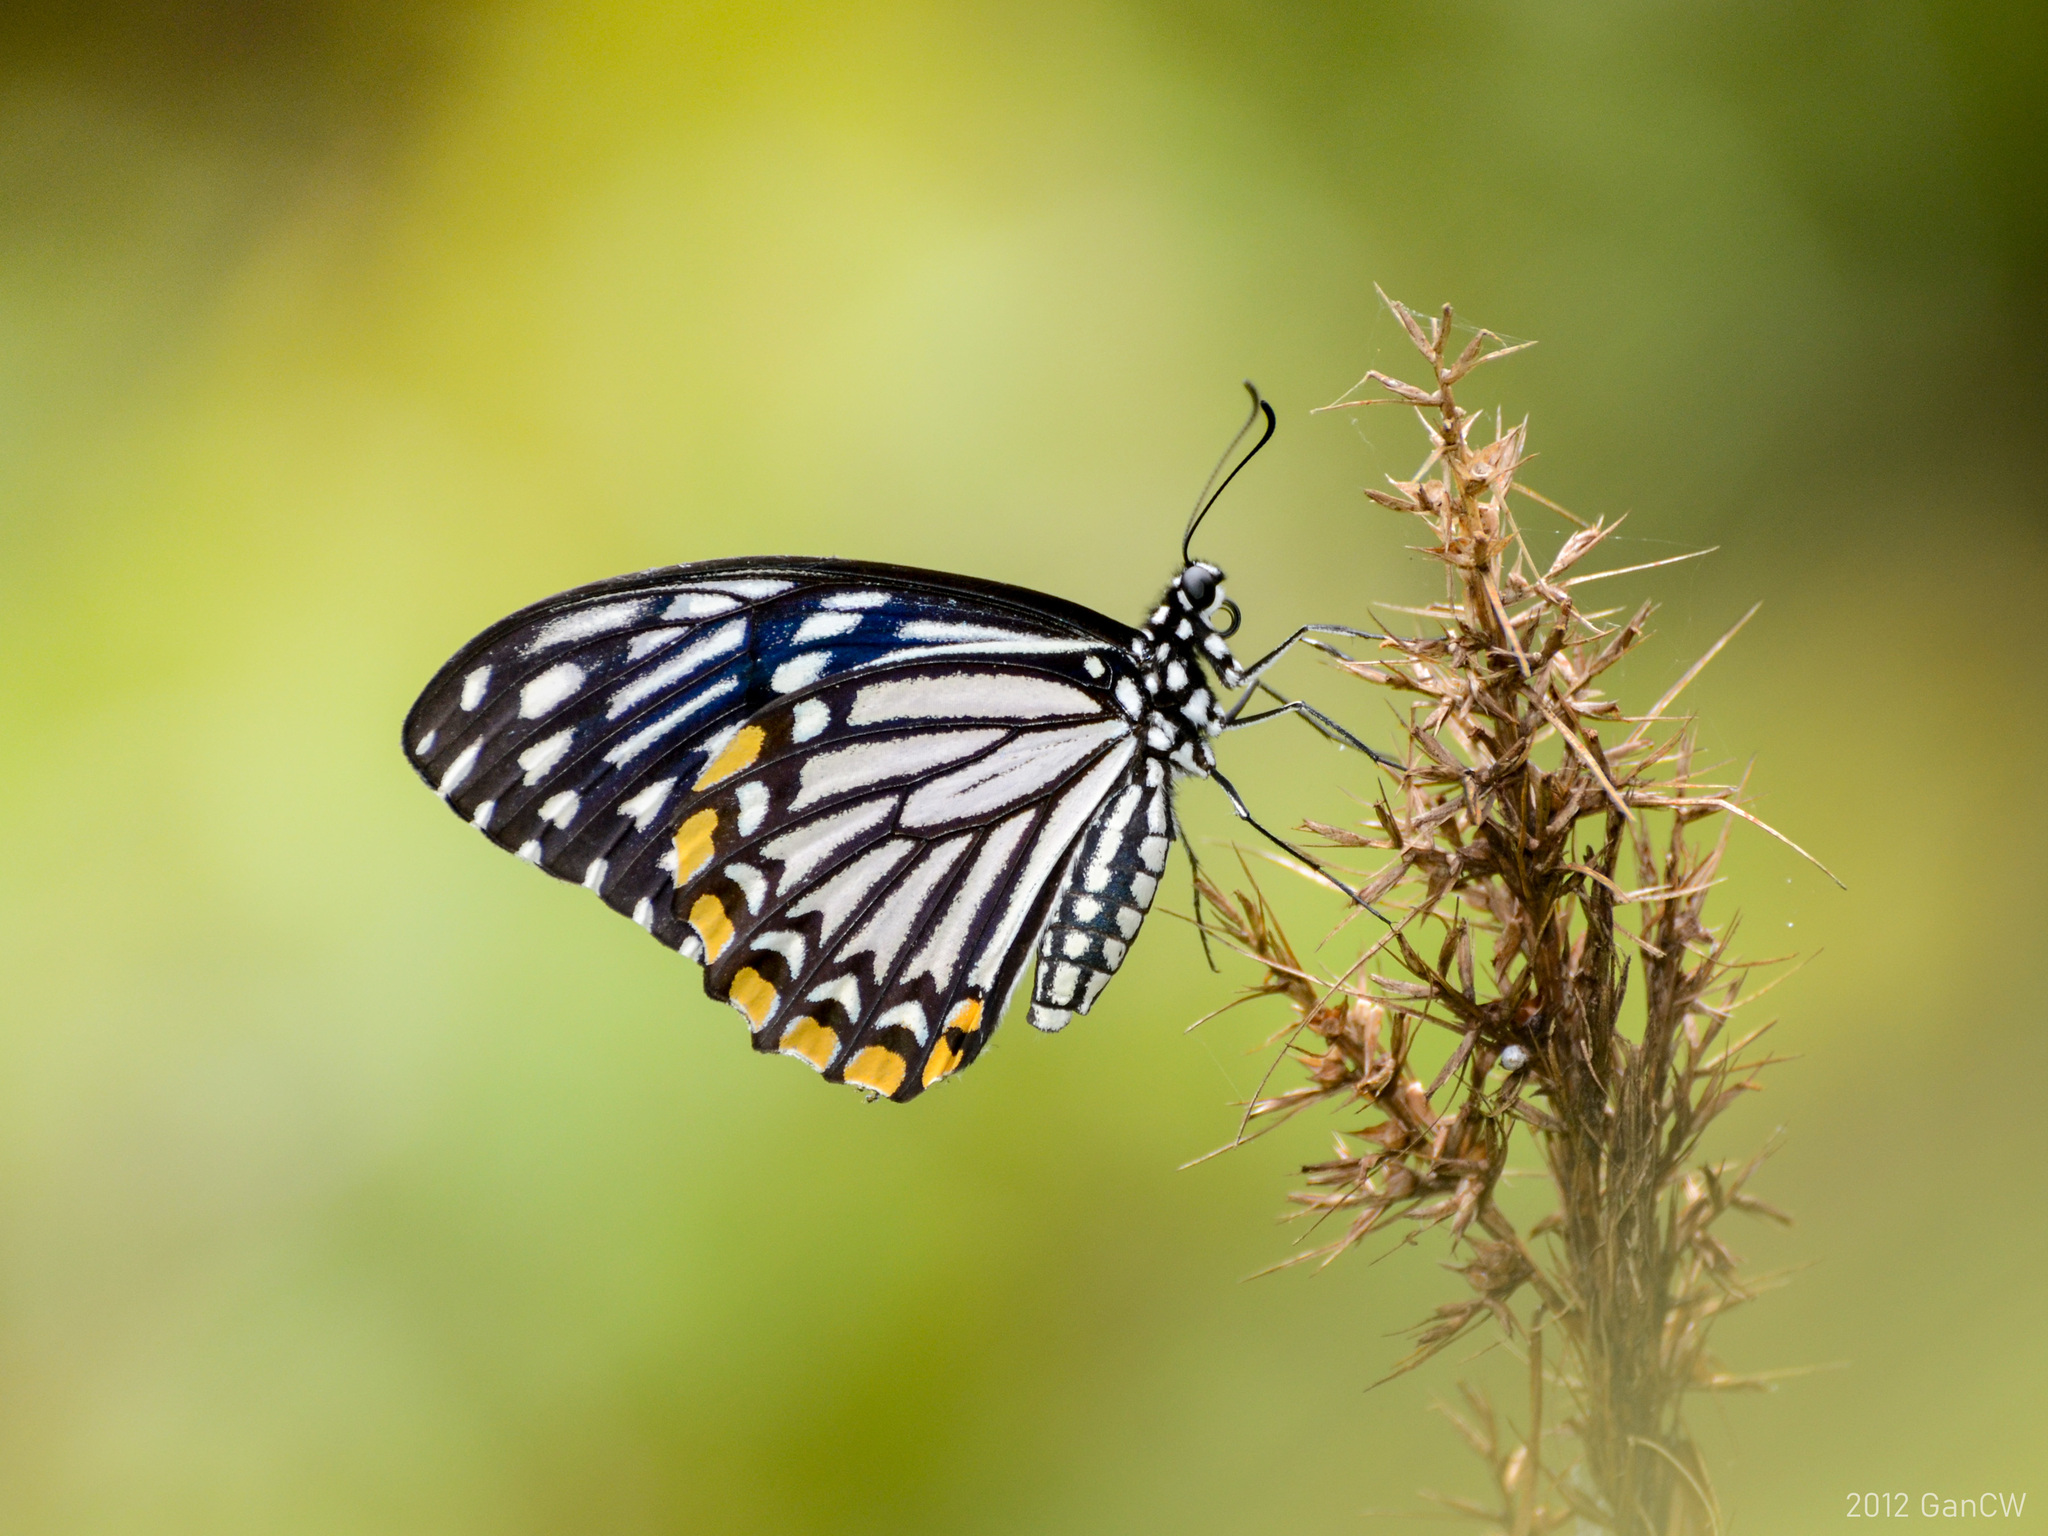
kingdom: Animalia
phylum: Arthropoda
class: Insecta
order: Lepidoptera
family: Papilionidae
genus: Chilasa
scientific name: Chilasa clytia
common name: Common mime
